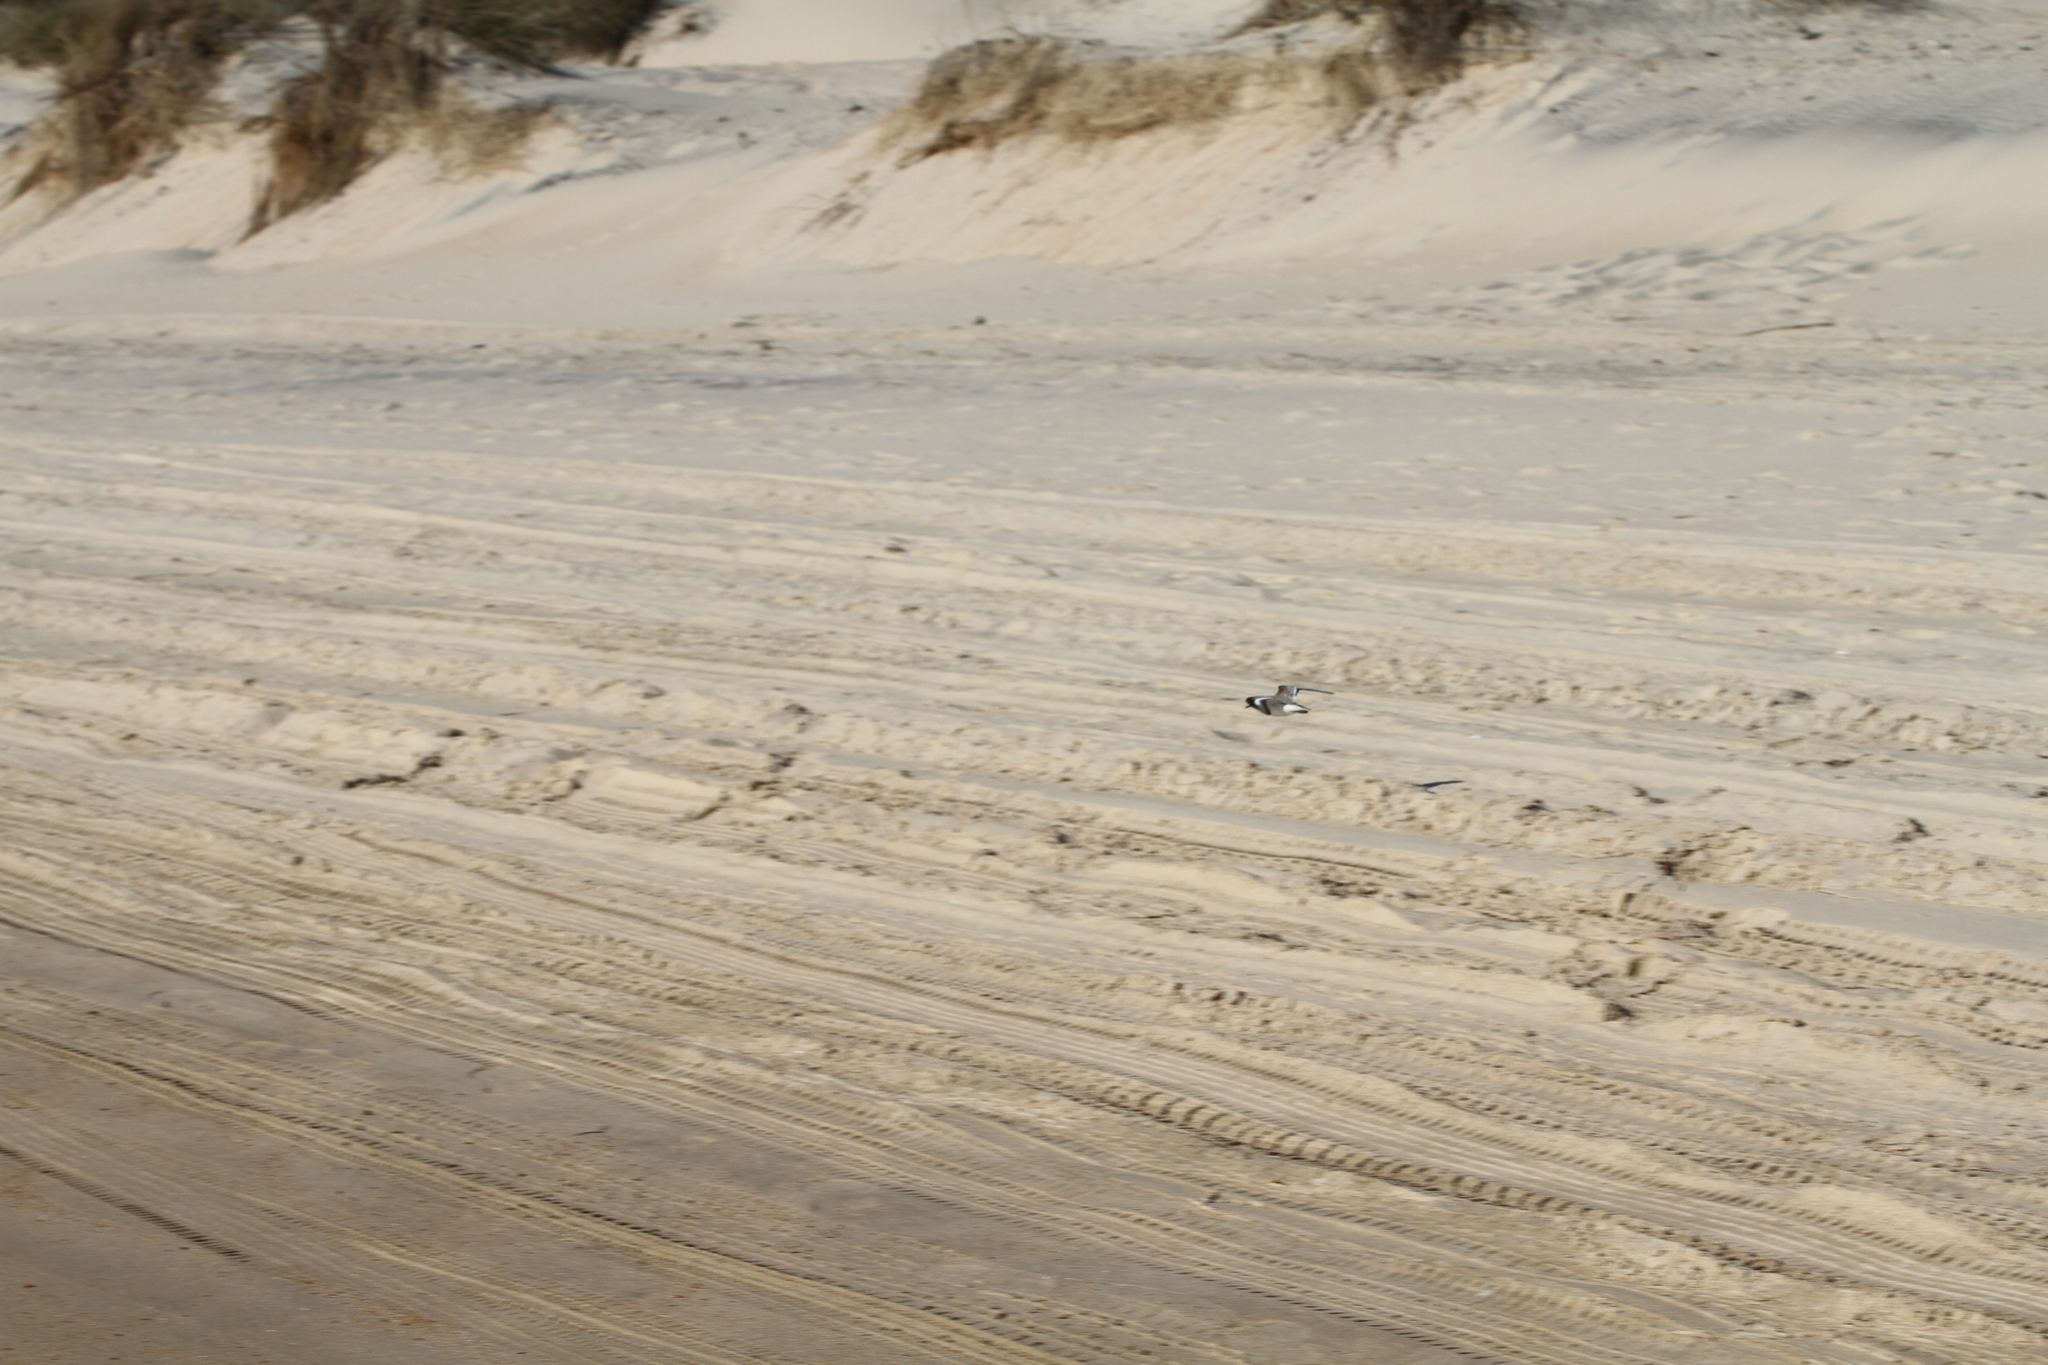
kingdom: Animalia
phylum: Chordata
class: Aves
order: Charadriiformes
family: Scolopacidae
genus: Calidris
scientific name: Calidris alba
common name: Sanderling
